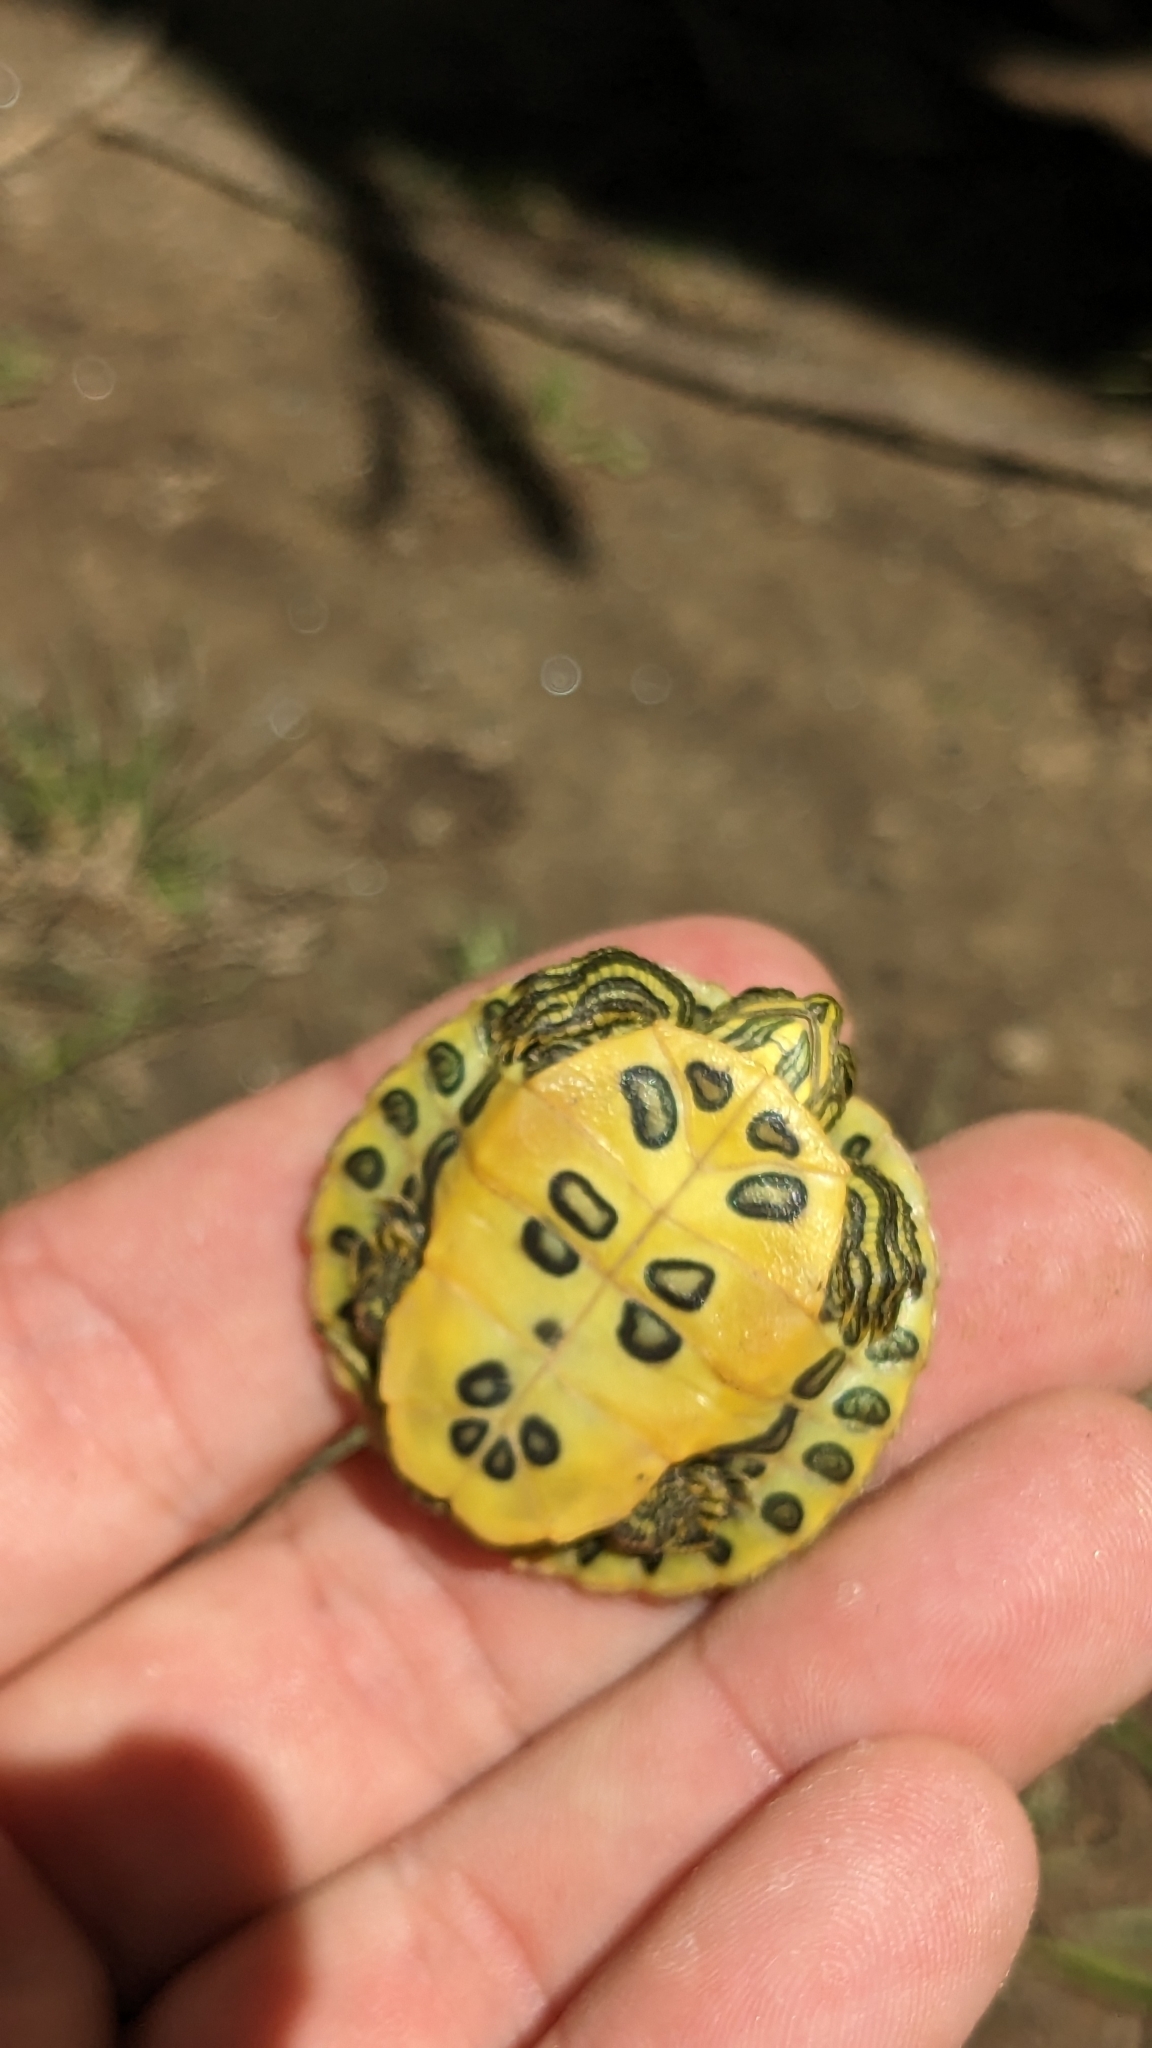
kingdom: Animalia
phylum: Chordata
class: Testudines
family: Emydidae
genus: Trachemys
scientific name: Trachemys scripta
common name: Slider
